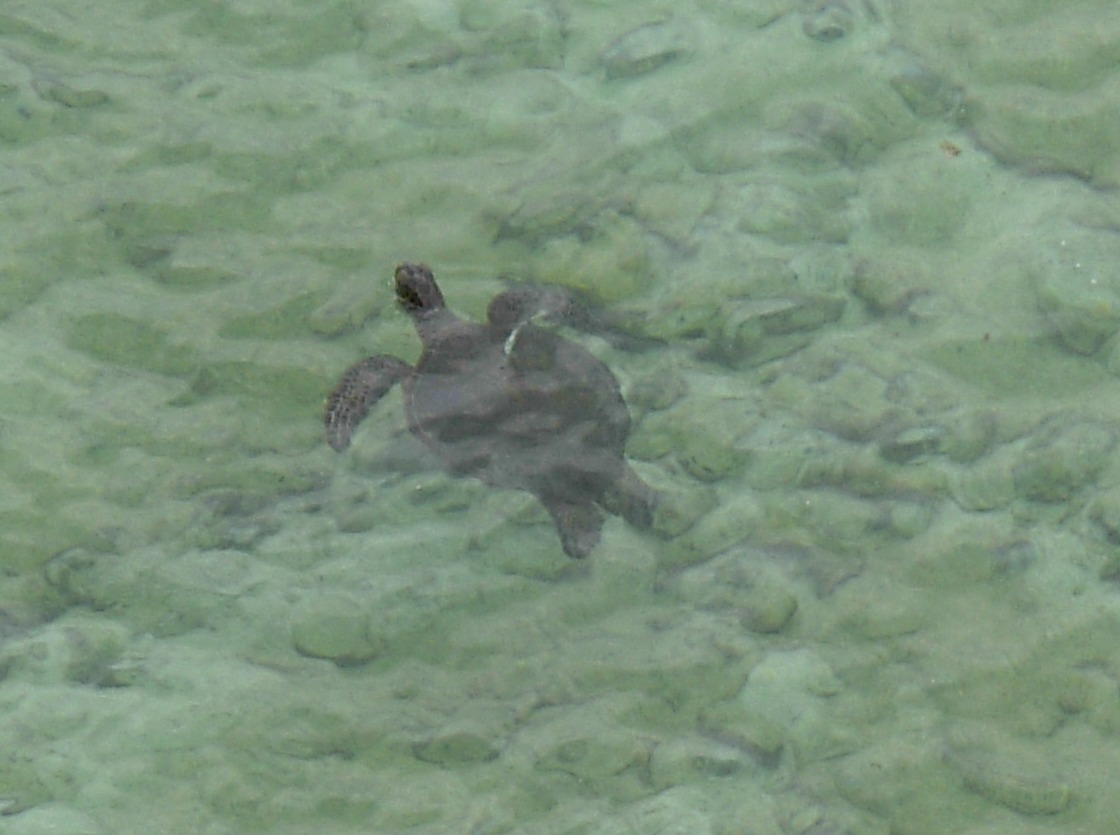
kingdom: Animalia
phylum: Chordata
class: Testudines
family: Cheloniidae
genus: Chelonia
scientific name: Chelonia mydas
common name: Green turtle
